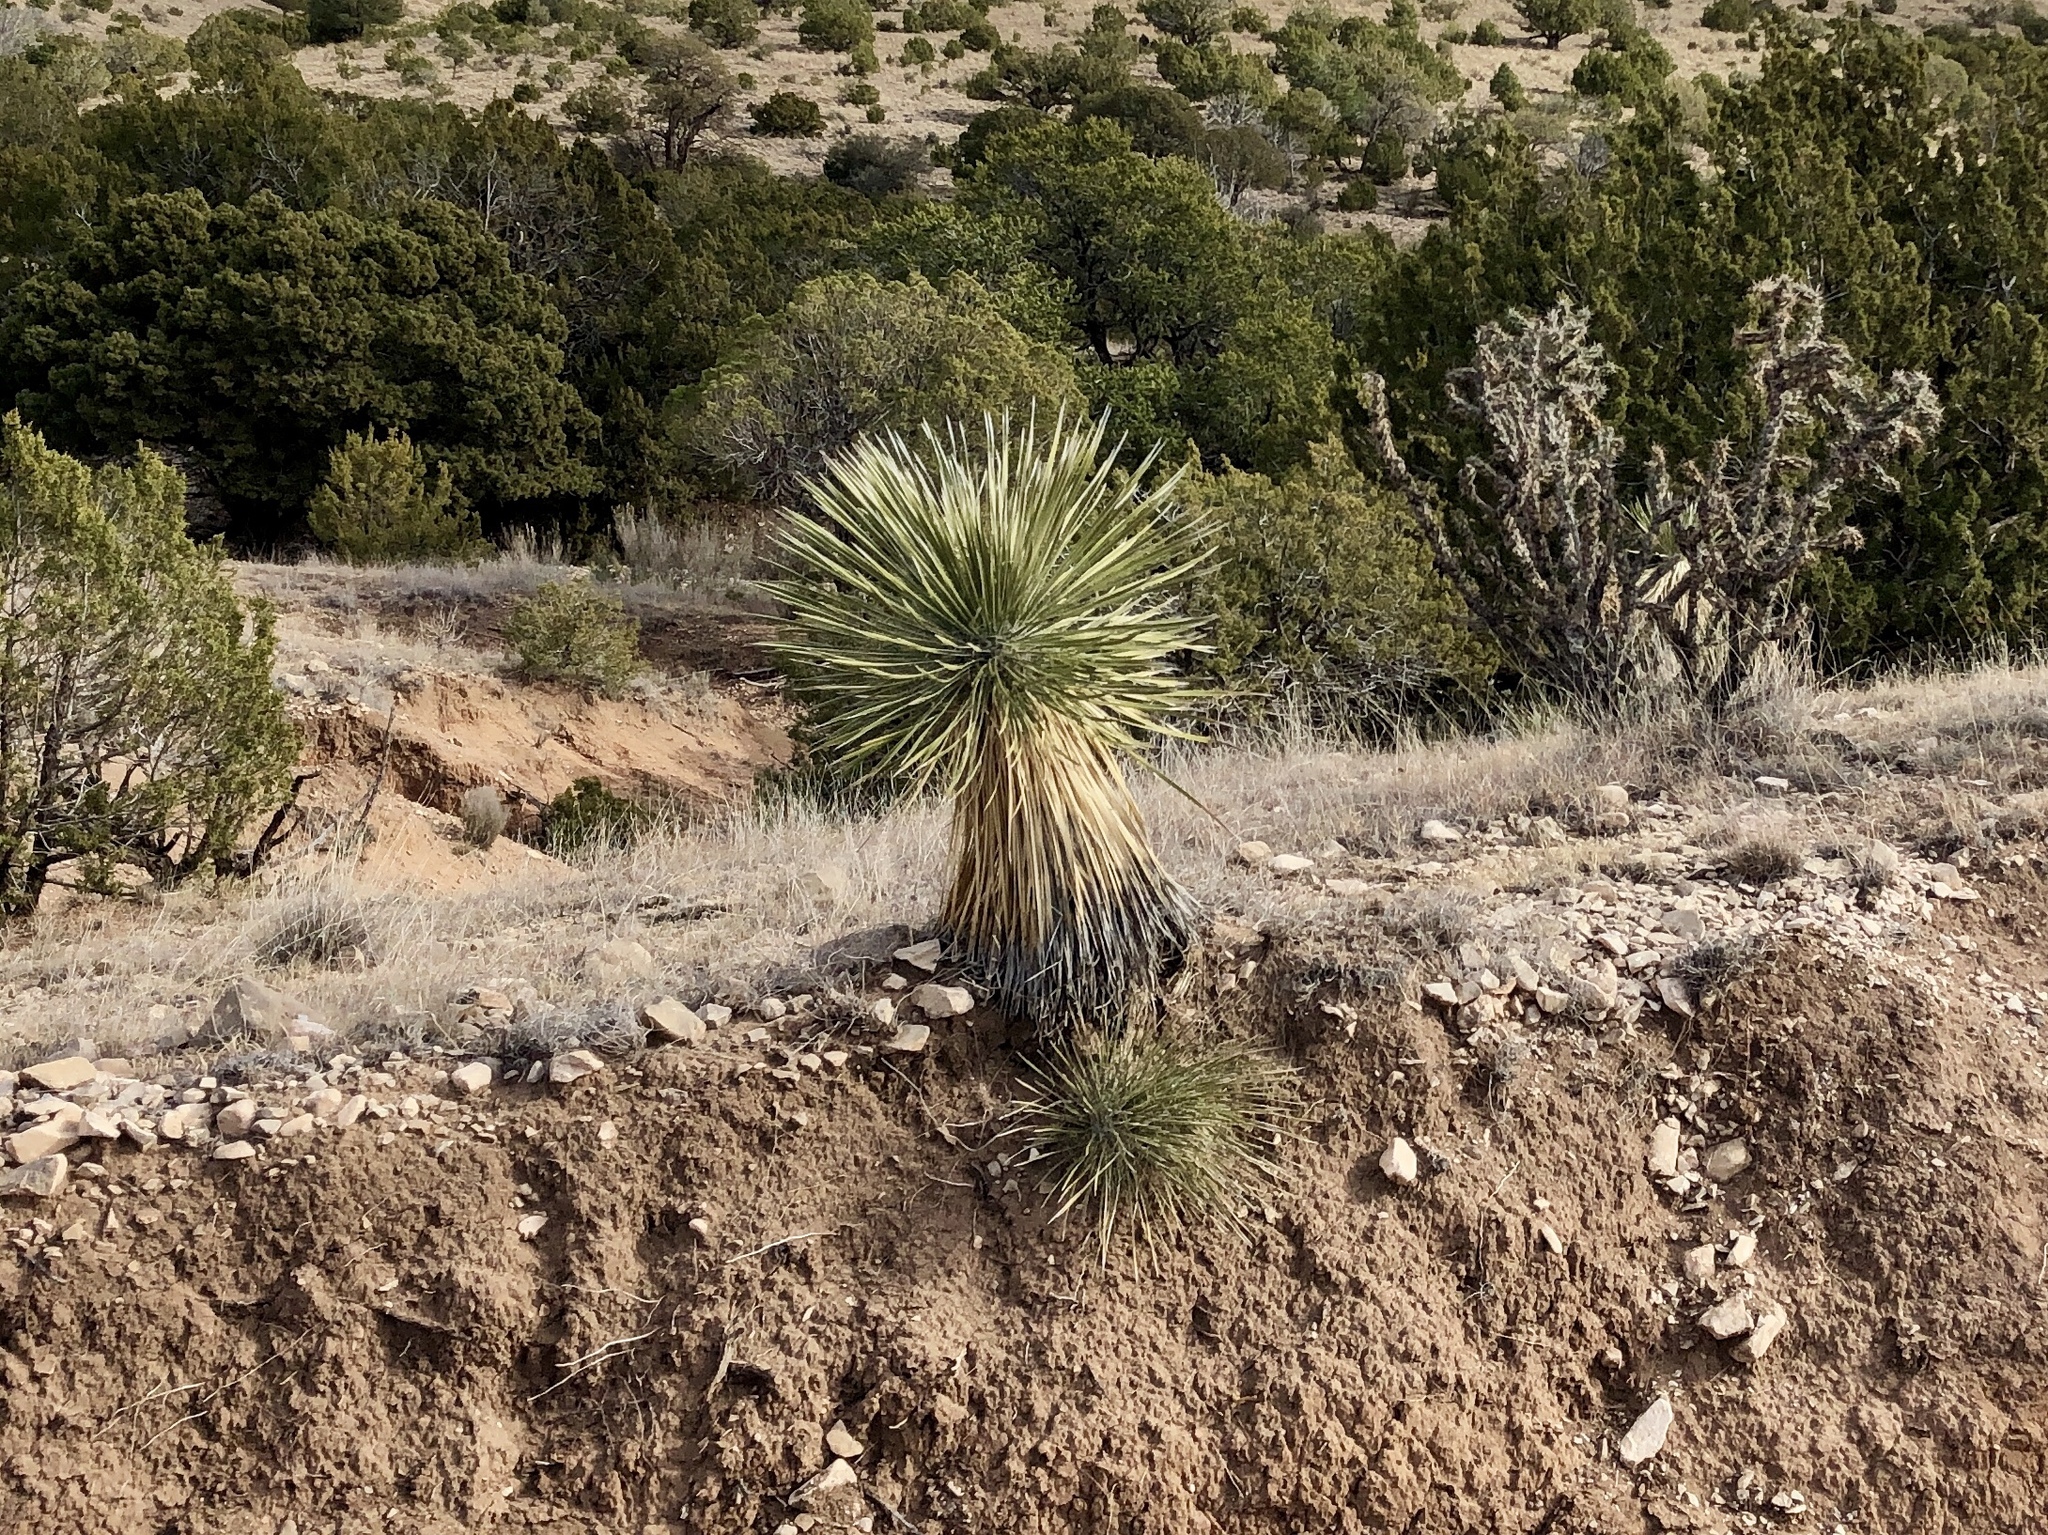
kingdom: Plantae
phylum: Tracheophyta
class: Liliopsida
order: Asparagales
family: Asparagaceae
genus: Yucca
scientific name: Yucca elata
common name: Palmella
